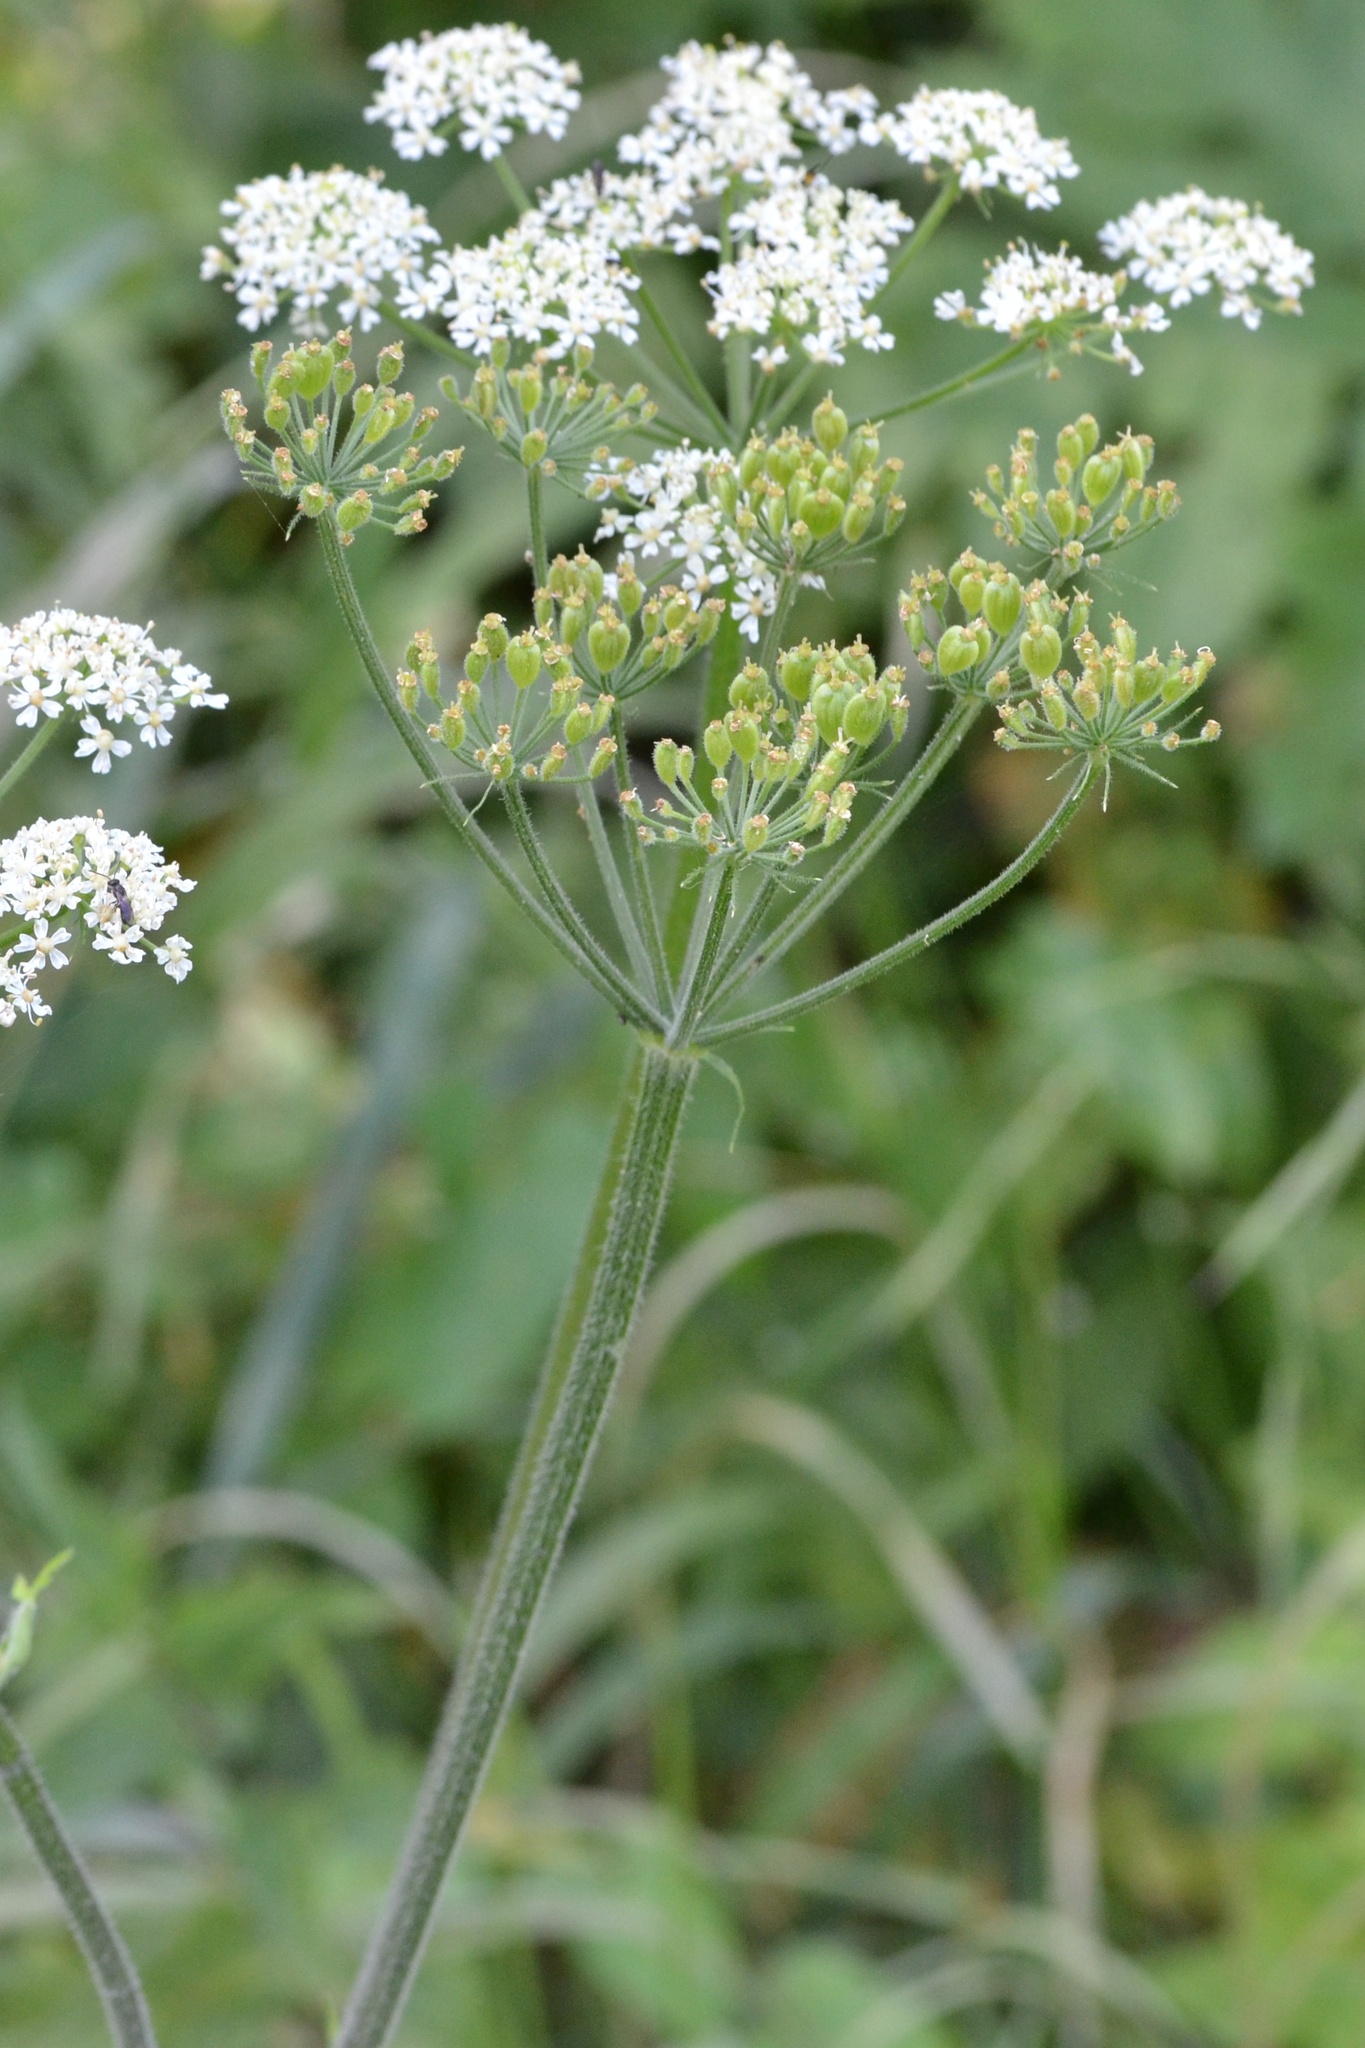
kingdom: Plantae
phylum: Tracheophyta
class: Magnoliopsida
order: Apiales
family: Apiaceae
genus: Heracleum
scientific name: Heracleum sphondylium
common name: Hogweed
